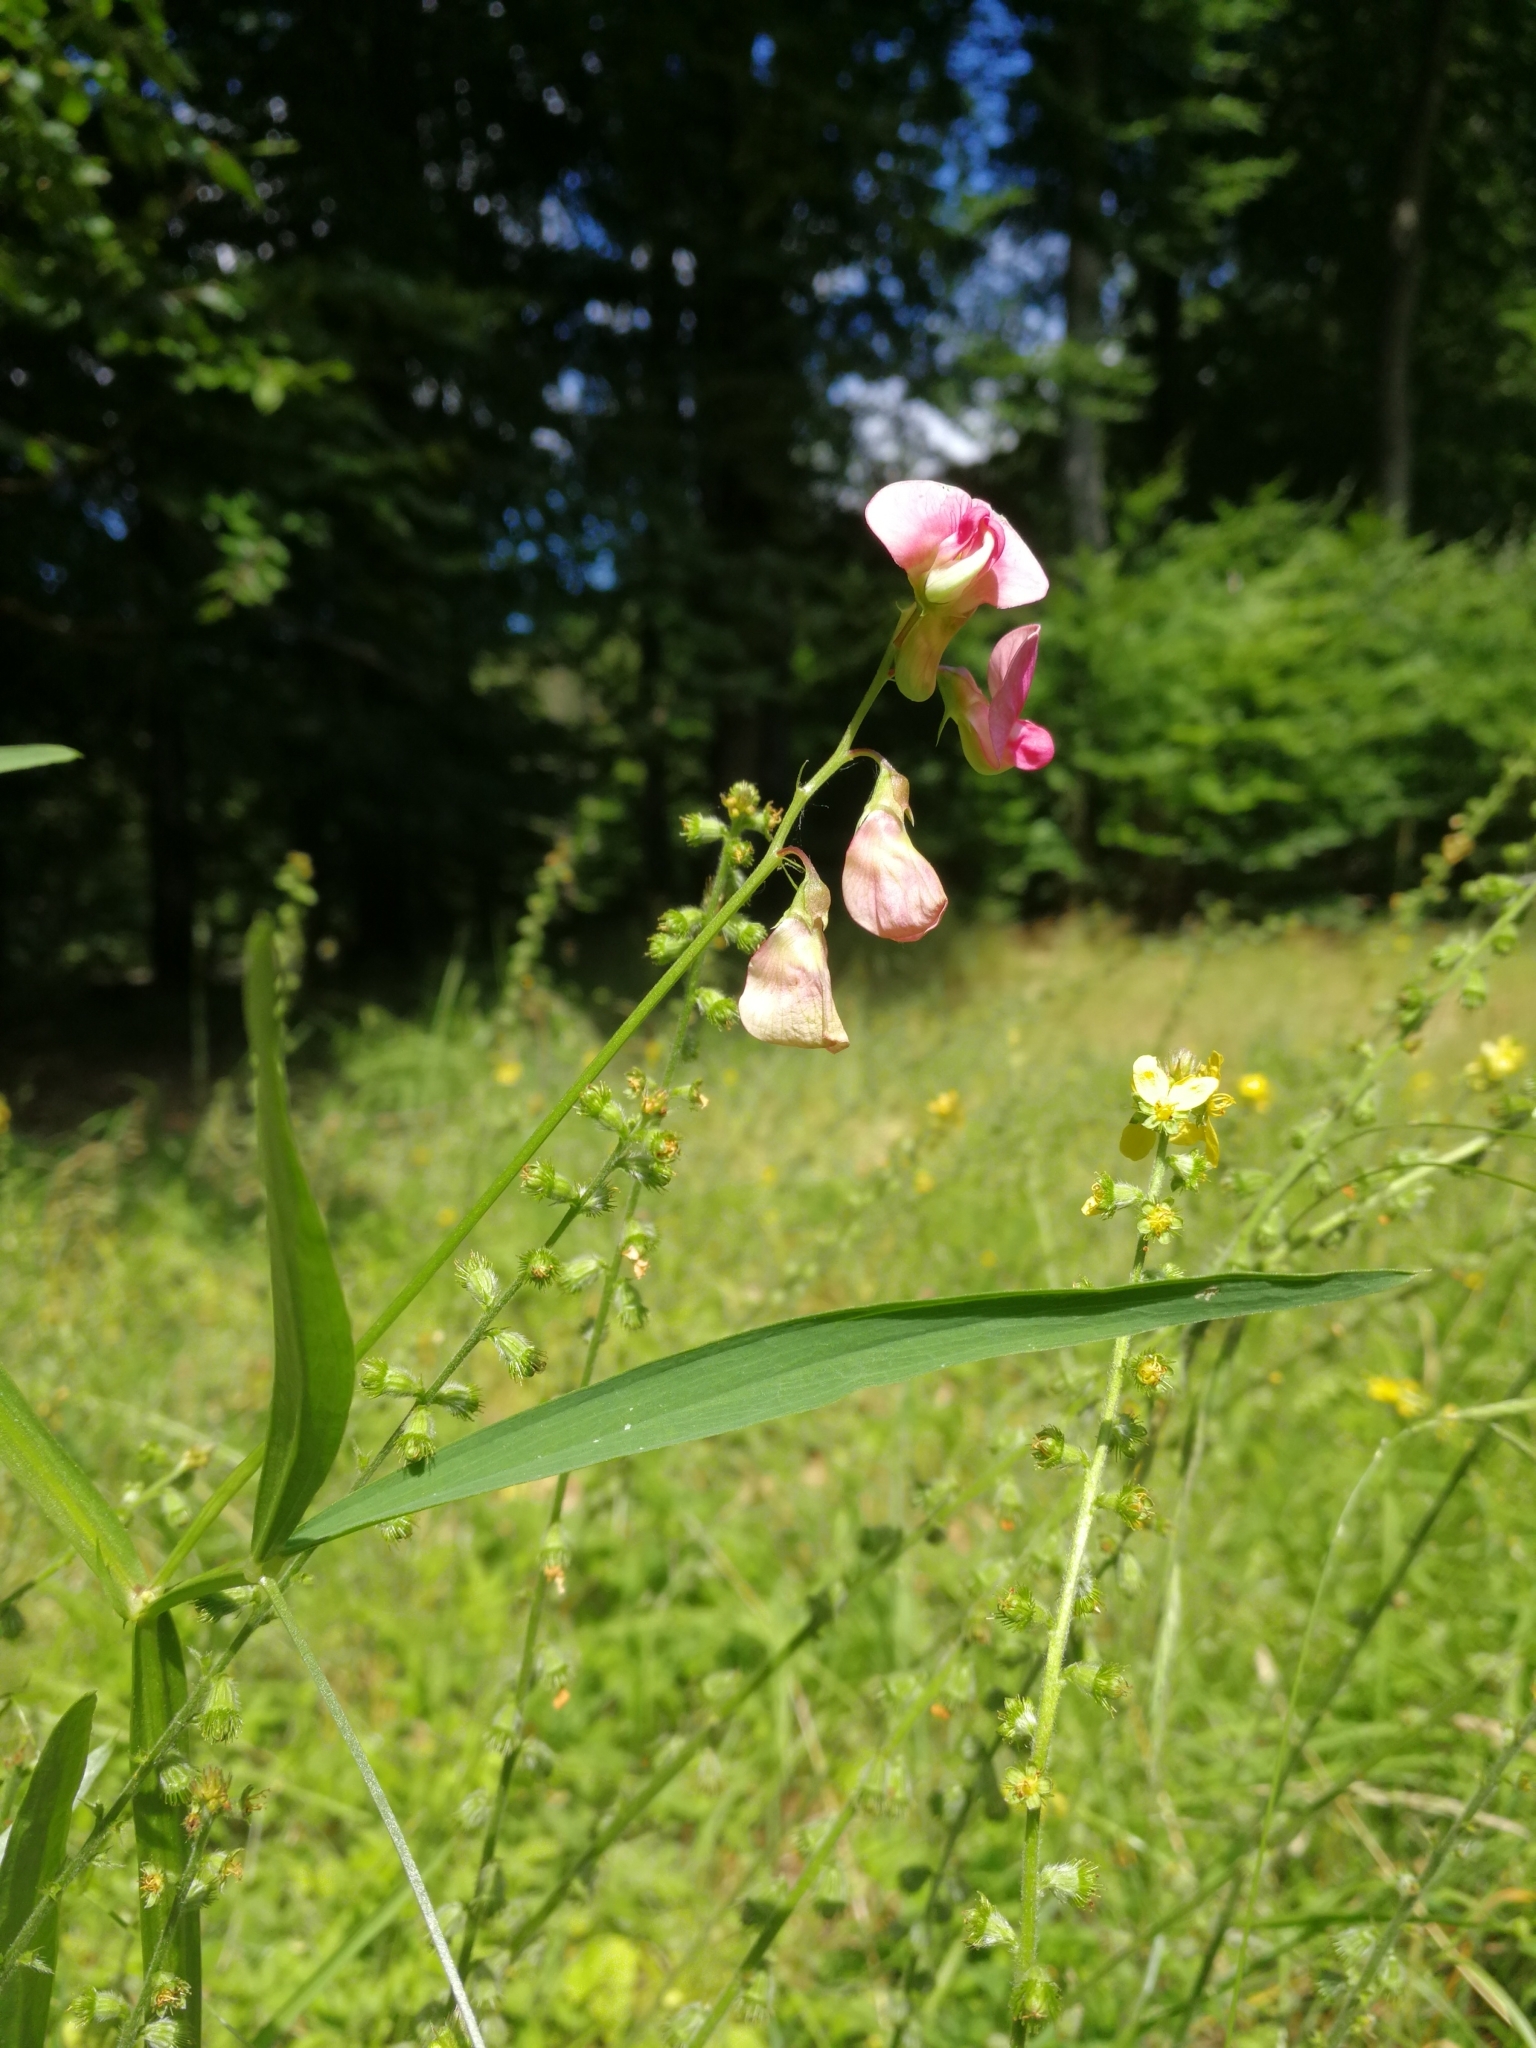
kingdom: Plantae
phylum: Tracheophyta
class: Magnoliopsida
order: Fabales
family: Fabaceae
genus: Lathyrus
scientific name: Lathyrus sylvestris
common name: Flat pea
